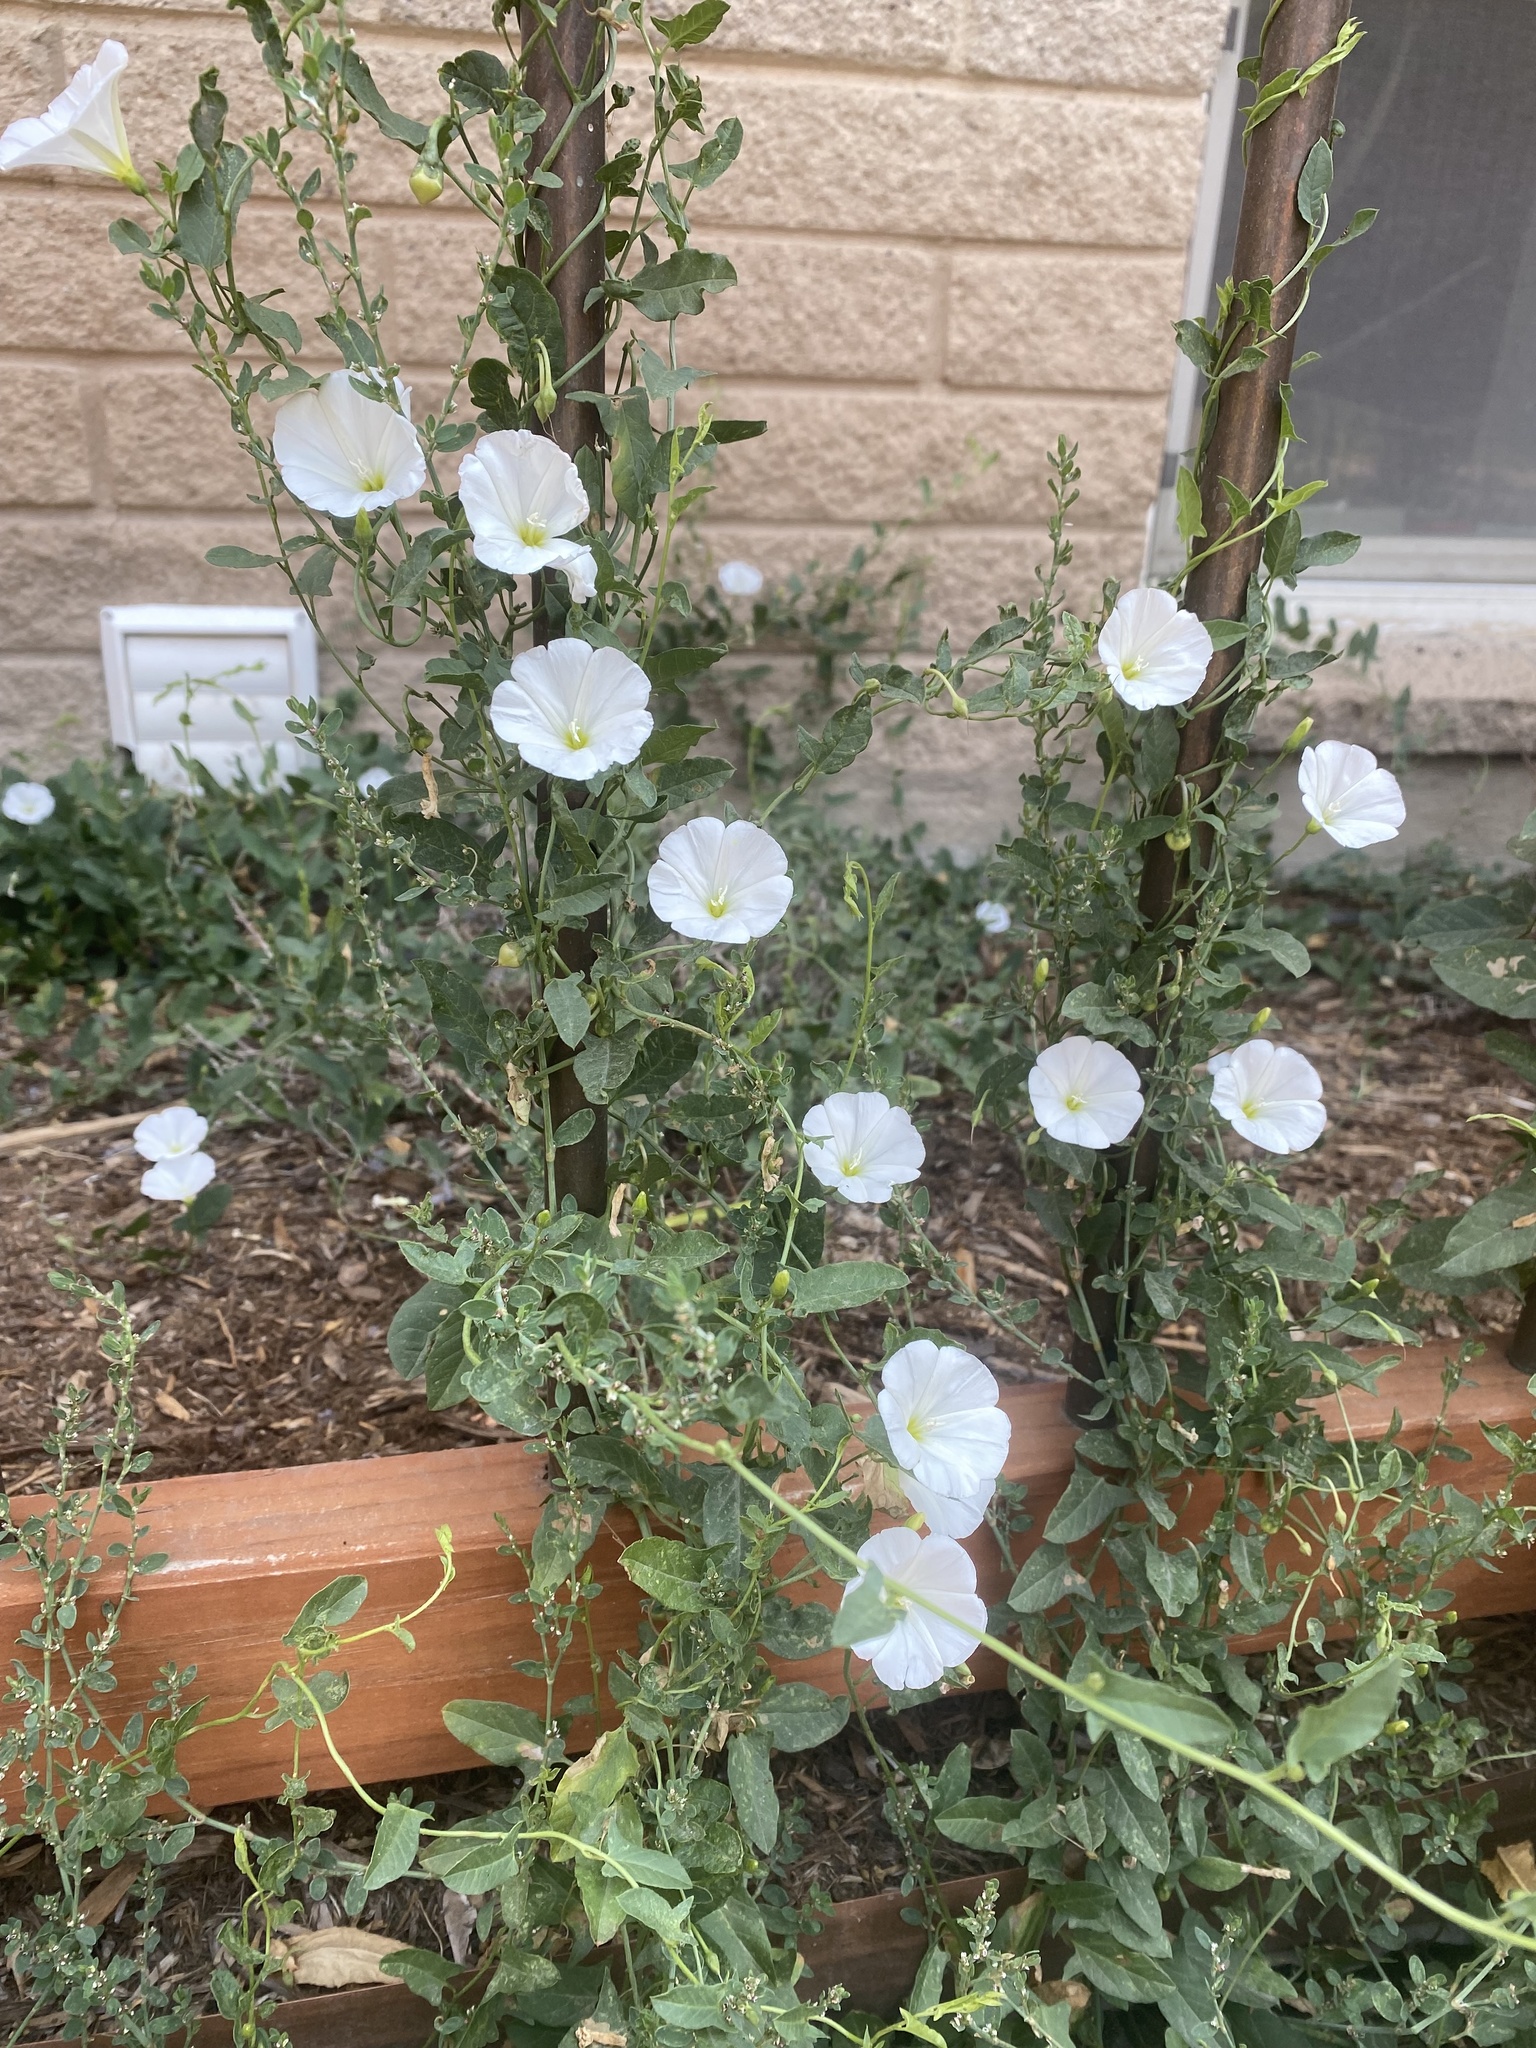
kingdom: Plantae
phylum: Tracheophyta
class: Magnoliopsida
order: Solanales
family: Convolvulaceae
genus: Convolvulus
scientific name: Convolvulus arvensis
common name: Field bindweed
